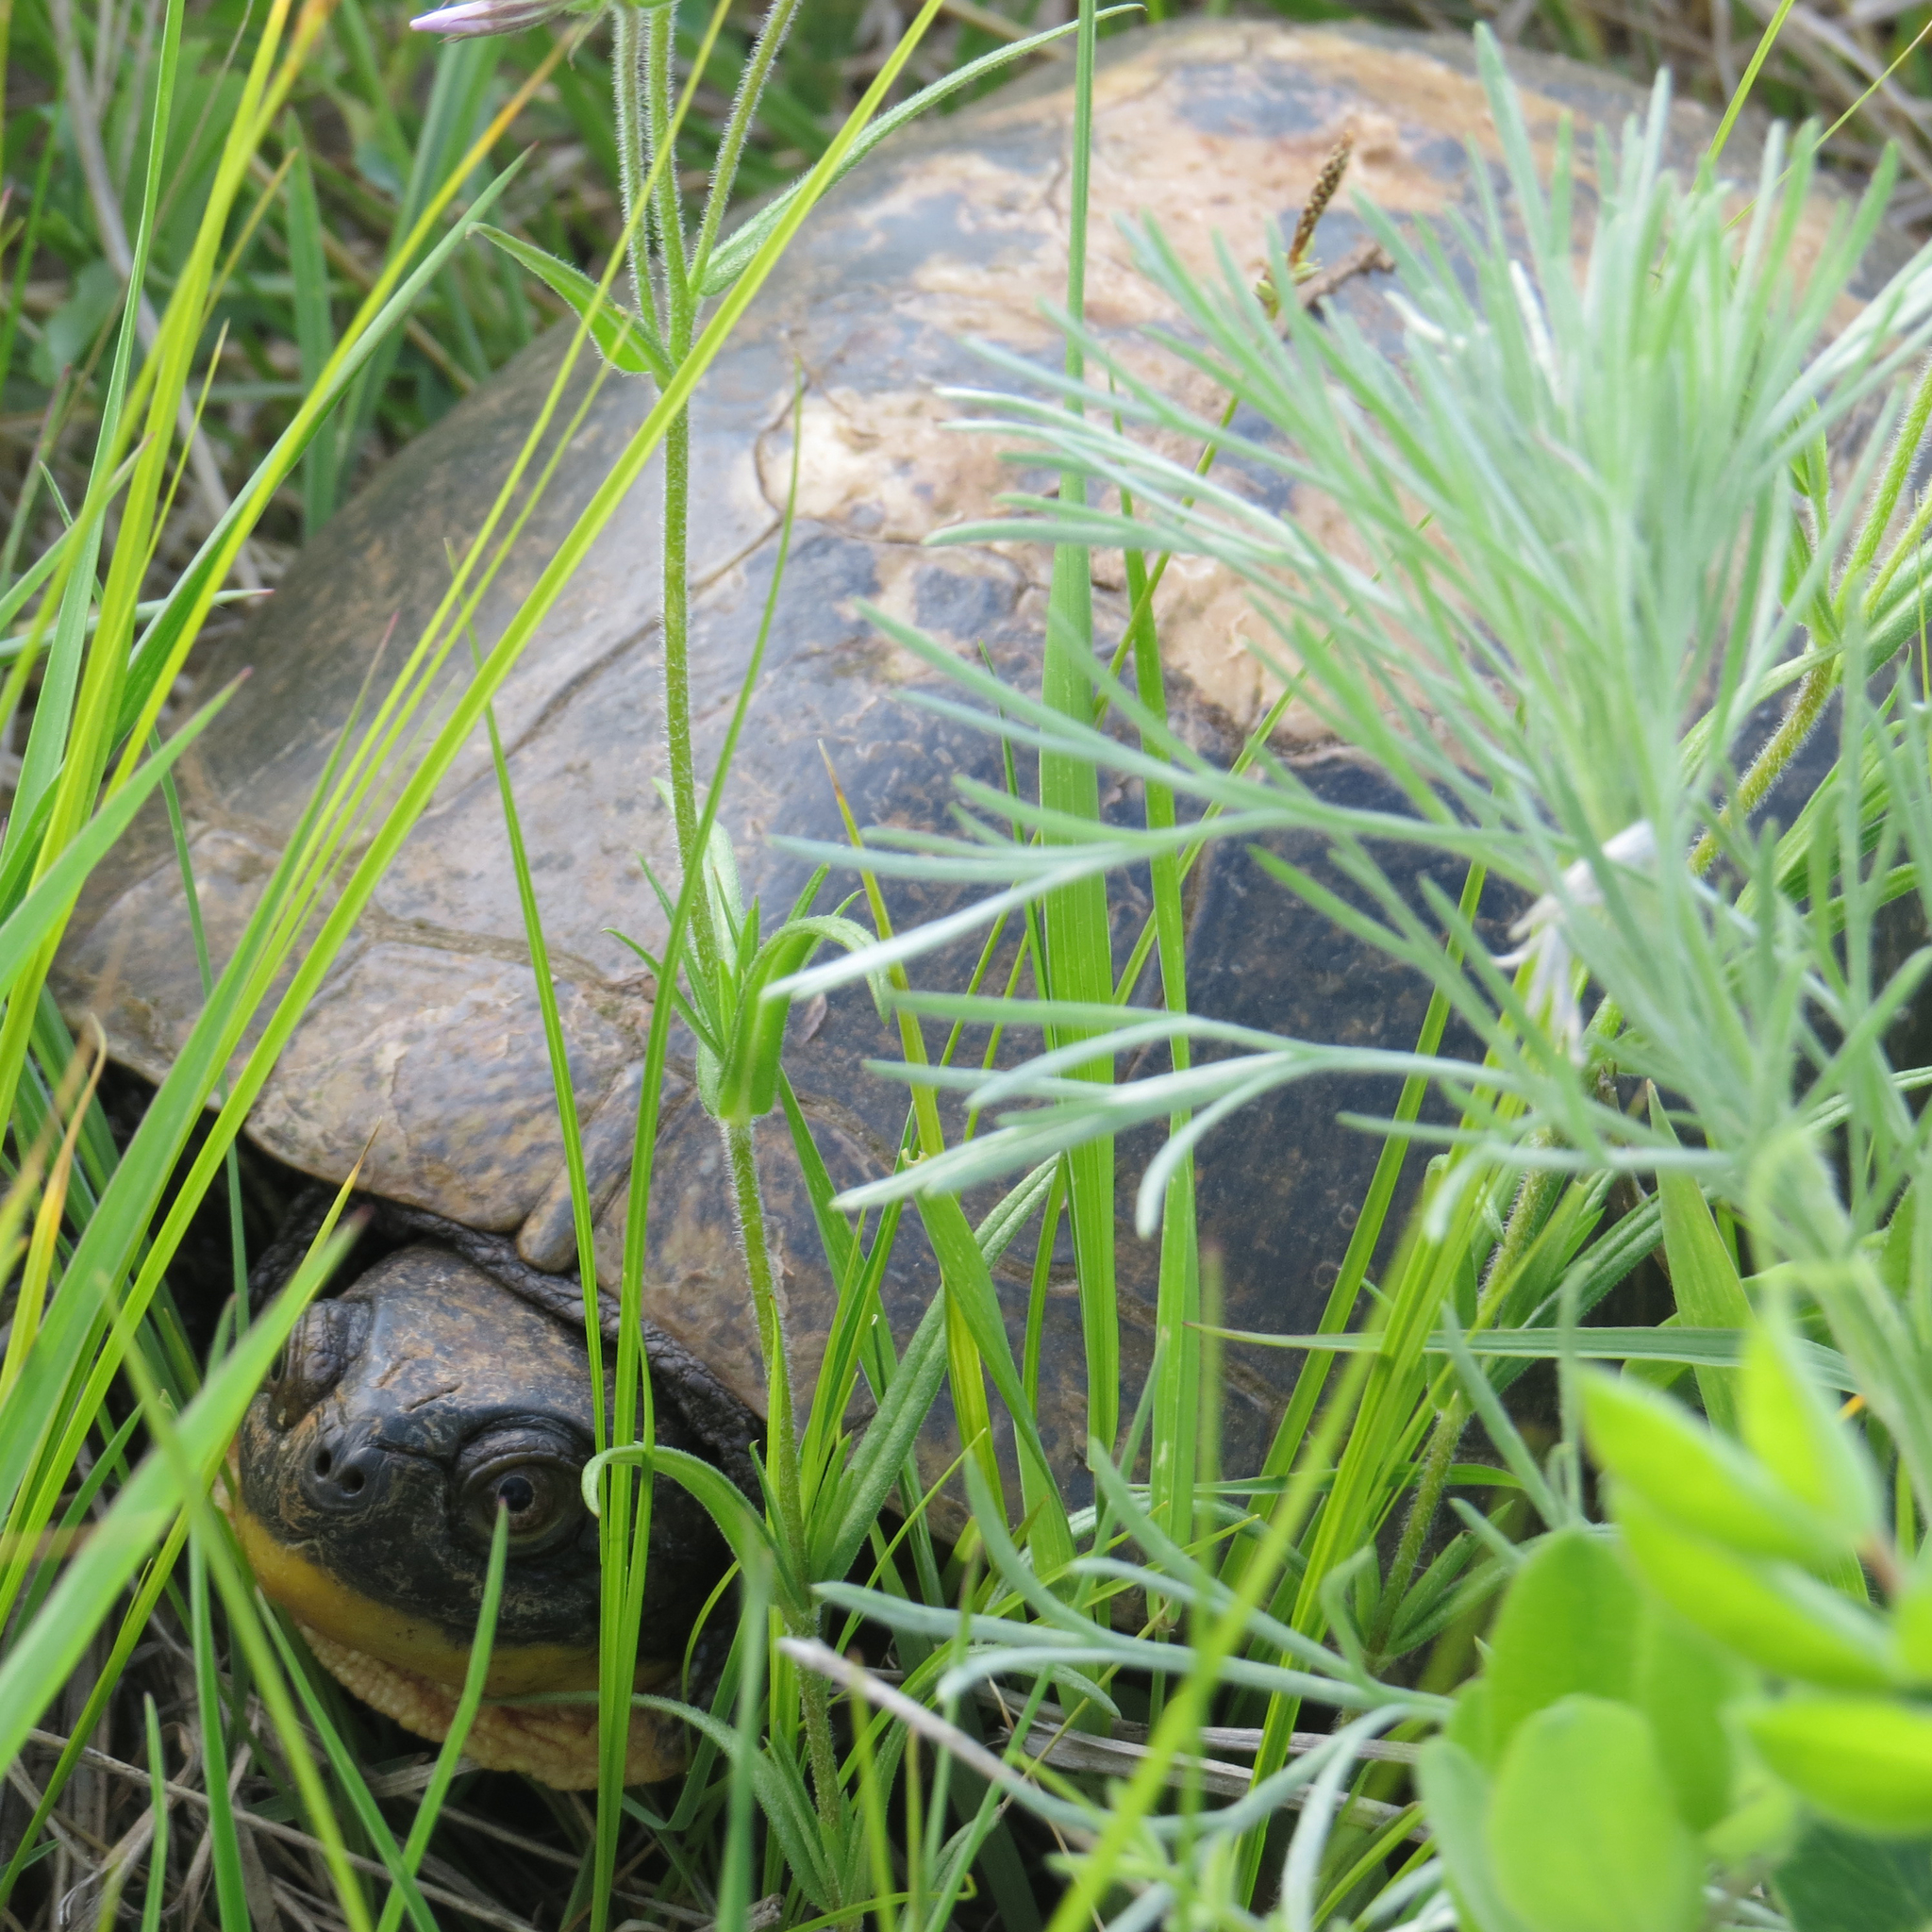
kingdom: Animalia
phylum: Chordata
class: Testudines
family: Emydidae
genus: Emys
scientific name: Emys blandingii
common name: Blanding's turtle
